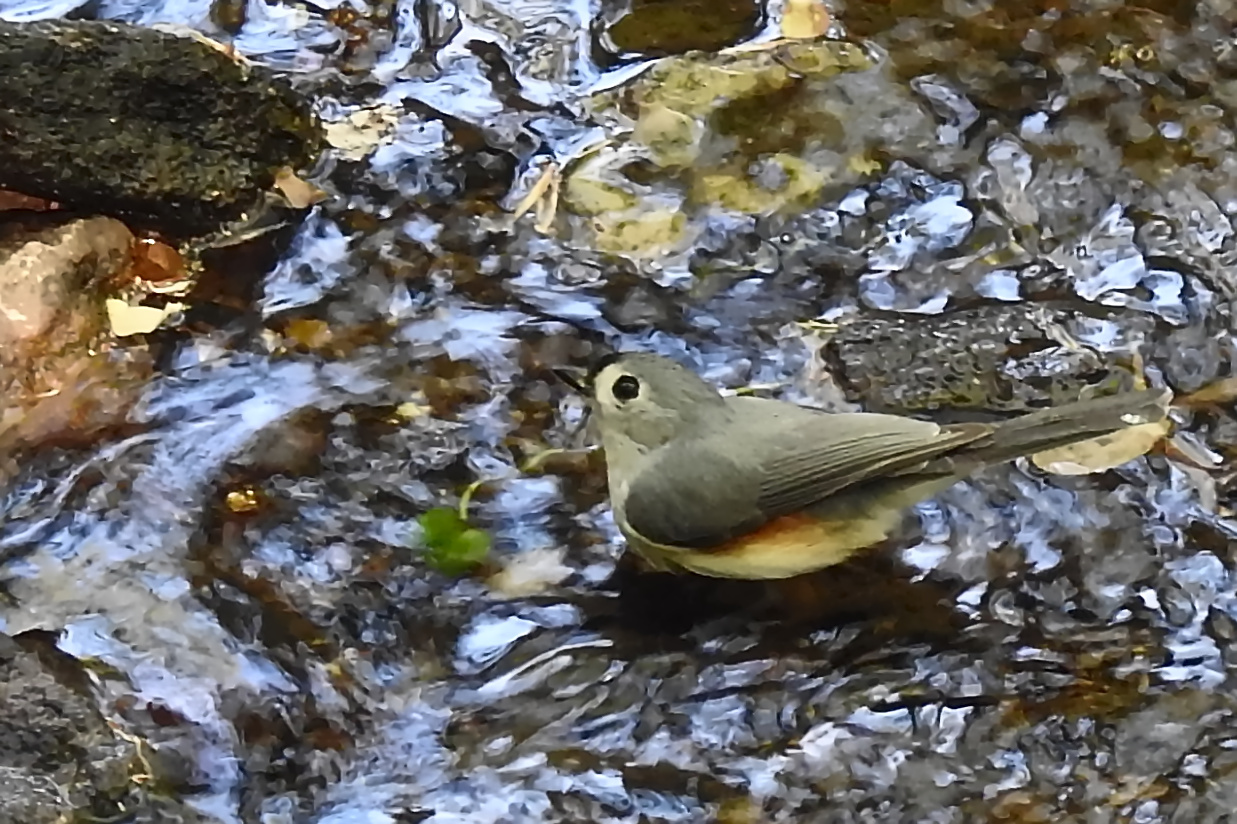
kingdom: Animalia
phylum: Chordata
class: Aves
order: Passeriformes
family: Paridae
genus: Baeolophus
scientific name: Baeolophus bicolor
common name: Tufted titmouse
